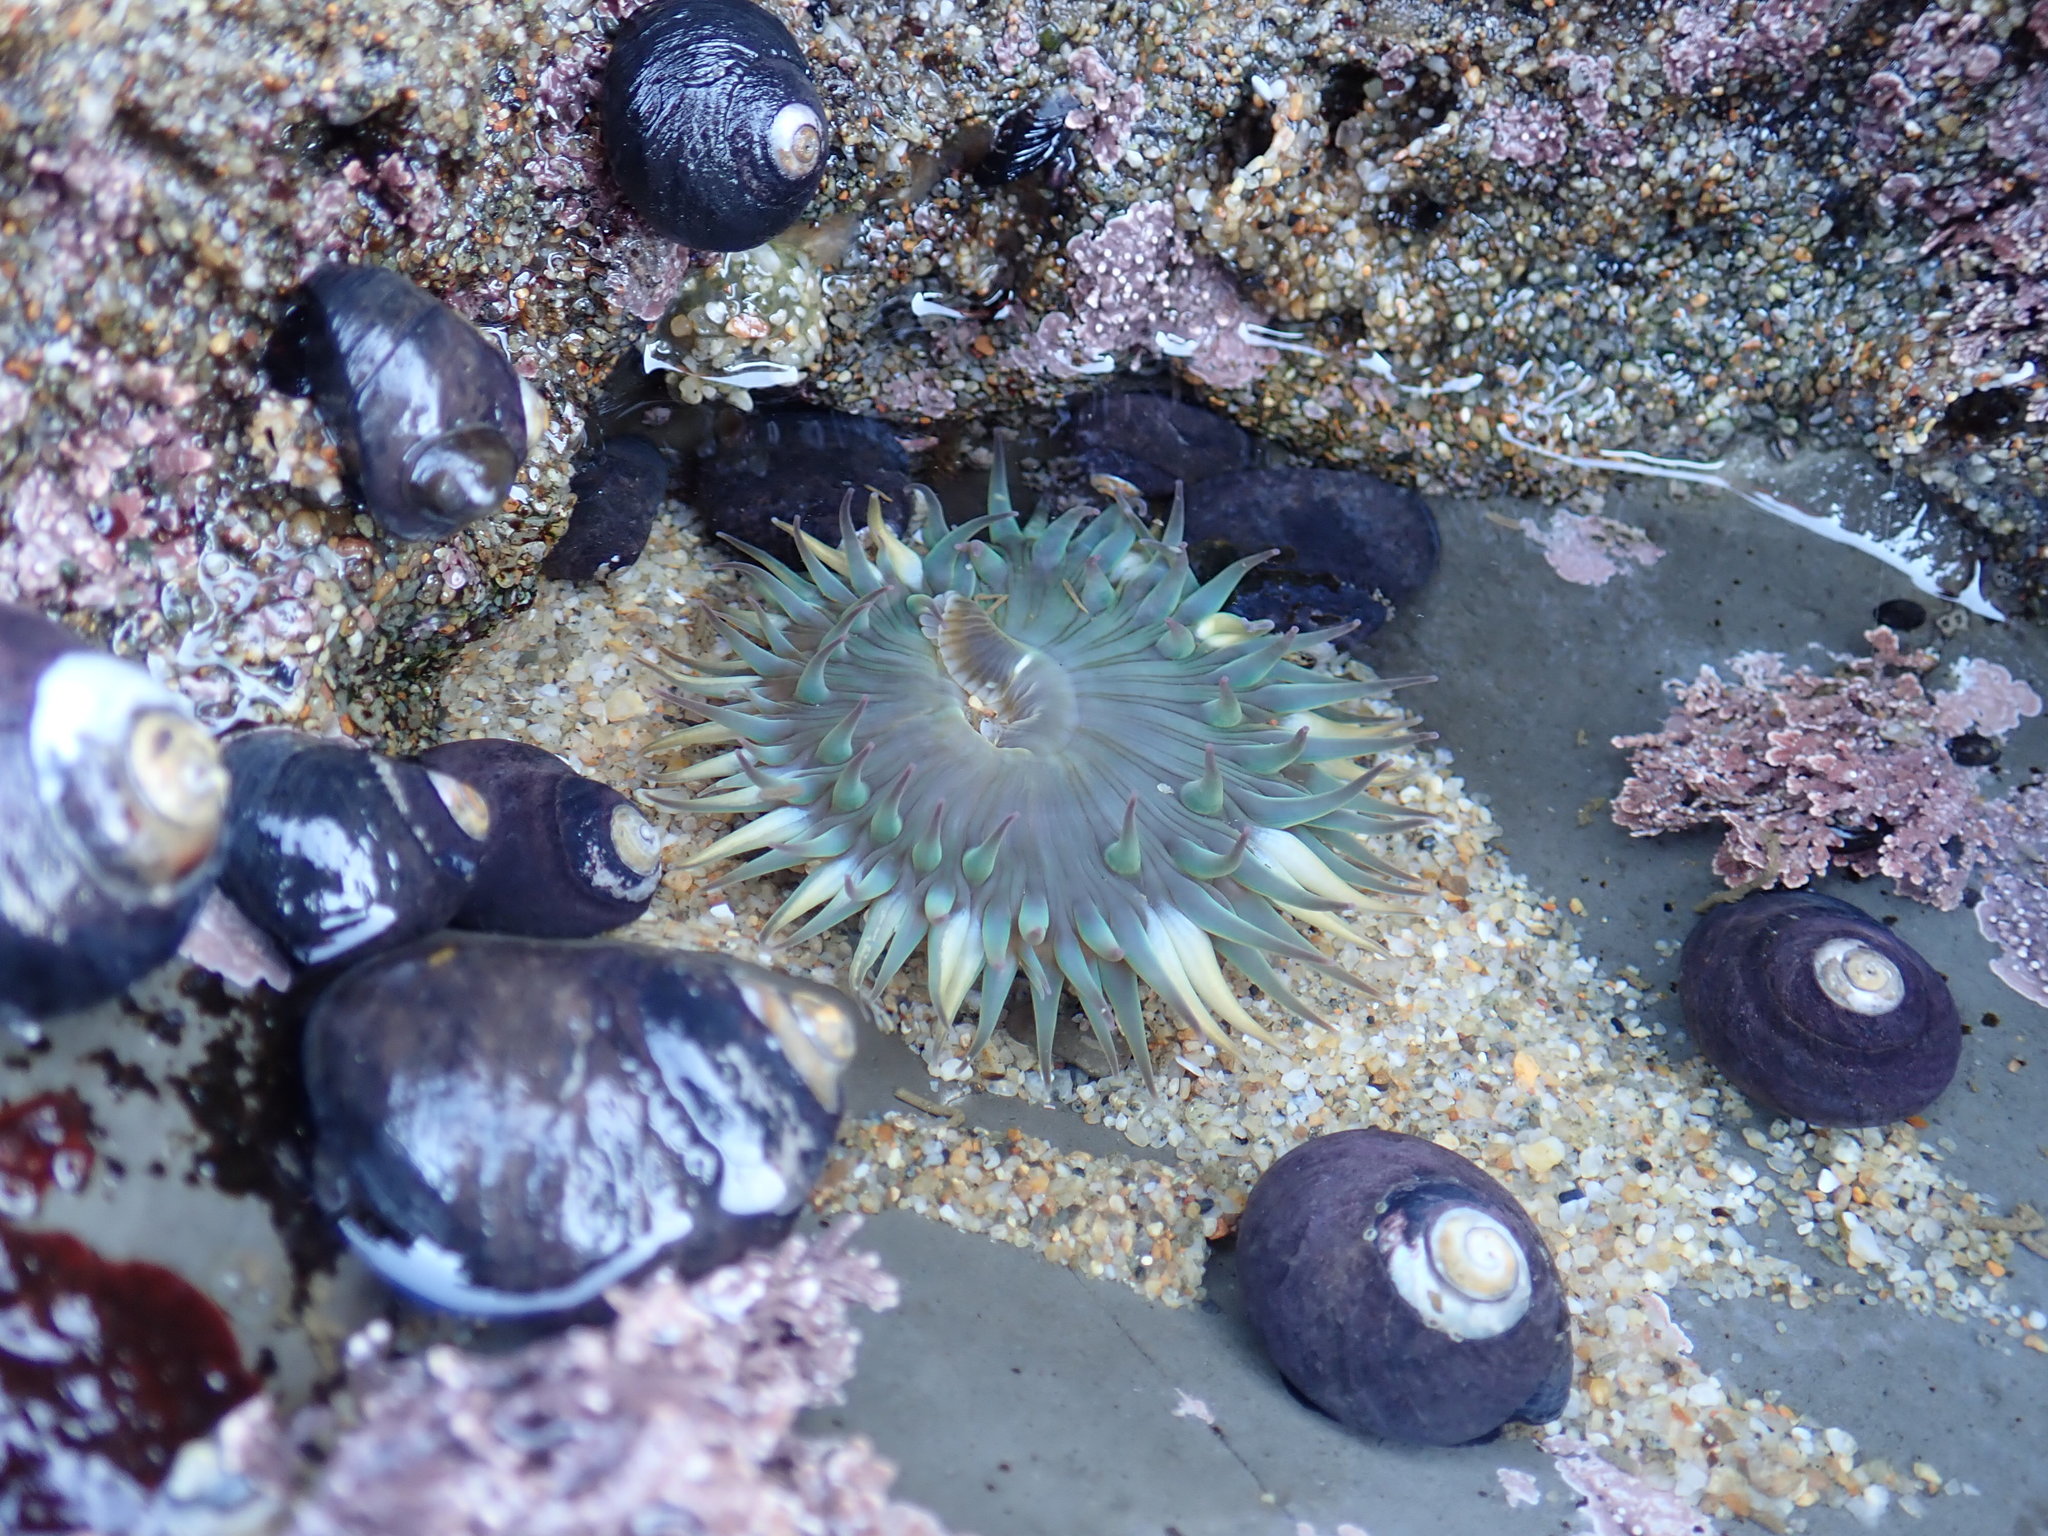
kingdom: Animalia
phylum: Cnidaria
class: Anthozoa
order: Actiniaria
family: Actiniidae
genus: Anthopleura
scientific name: Anthopleura sola
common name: Sun anemone
